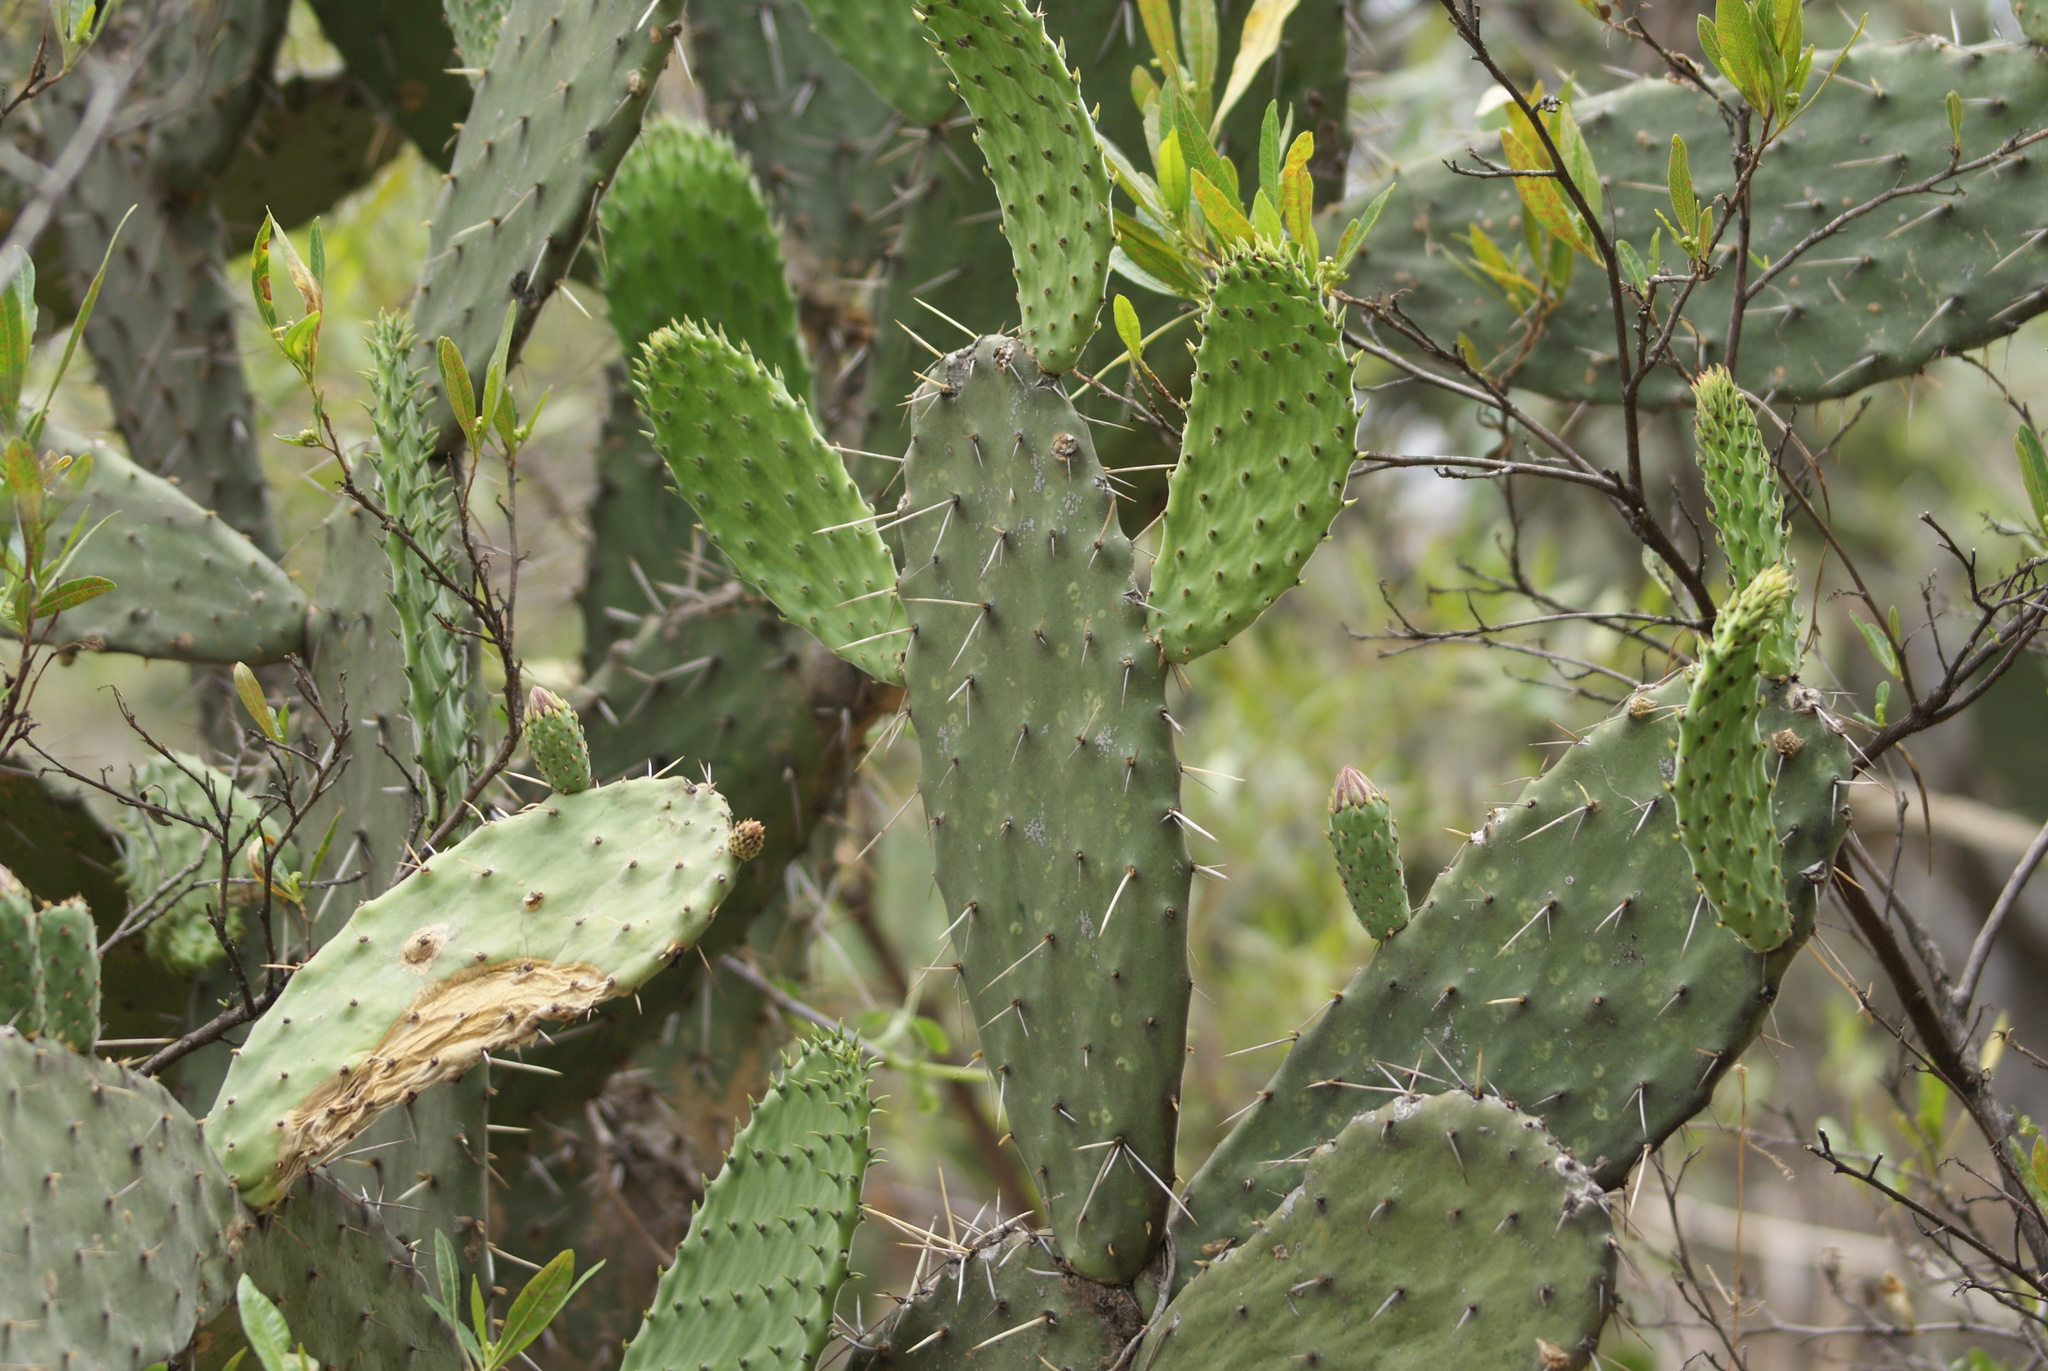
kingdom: Plantae
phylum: Tracheophyta
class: Magnoliopsida
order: Caryophyllales
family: Cactaceae
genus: Opuntia
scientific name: Opuntia lasiacantha
